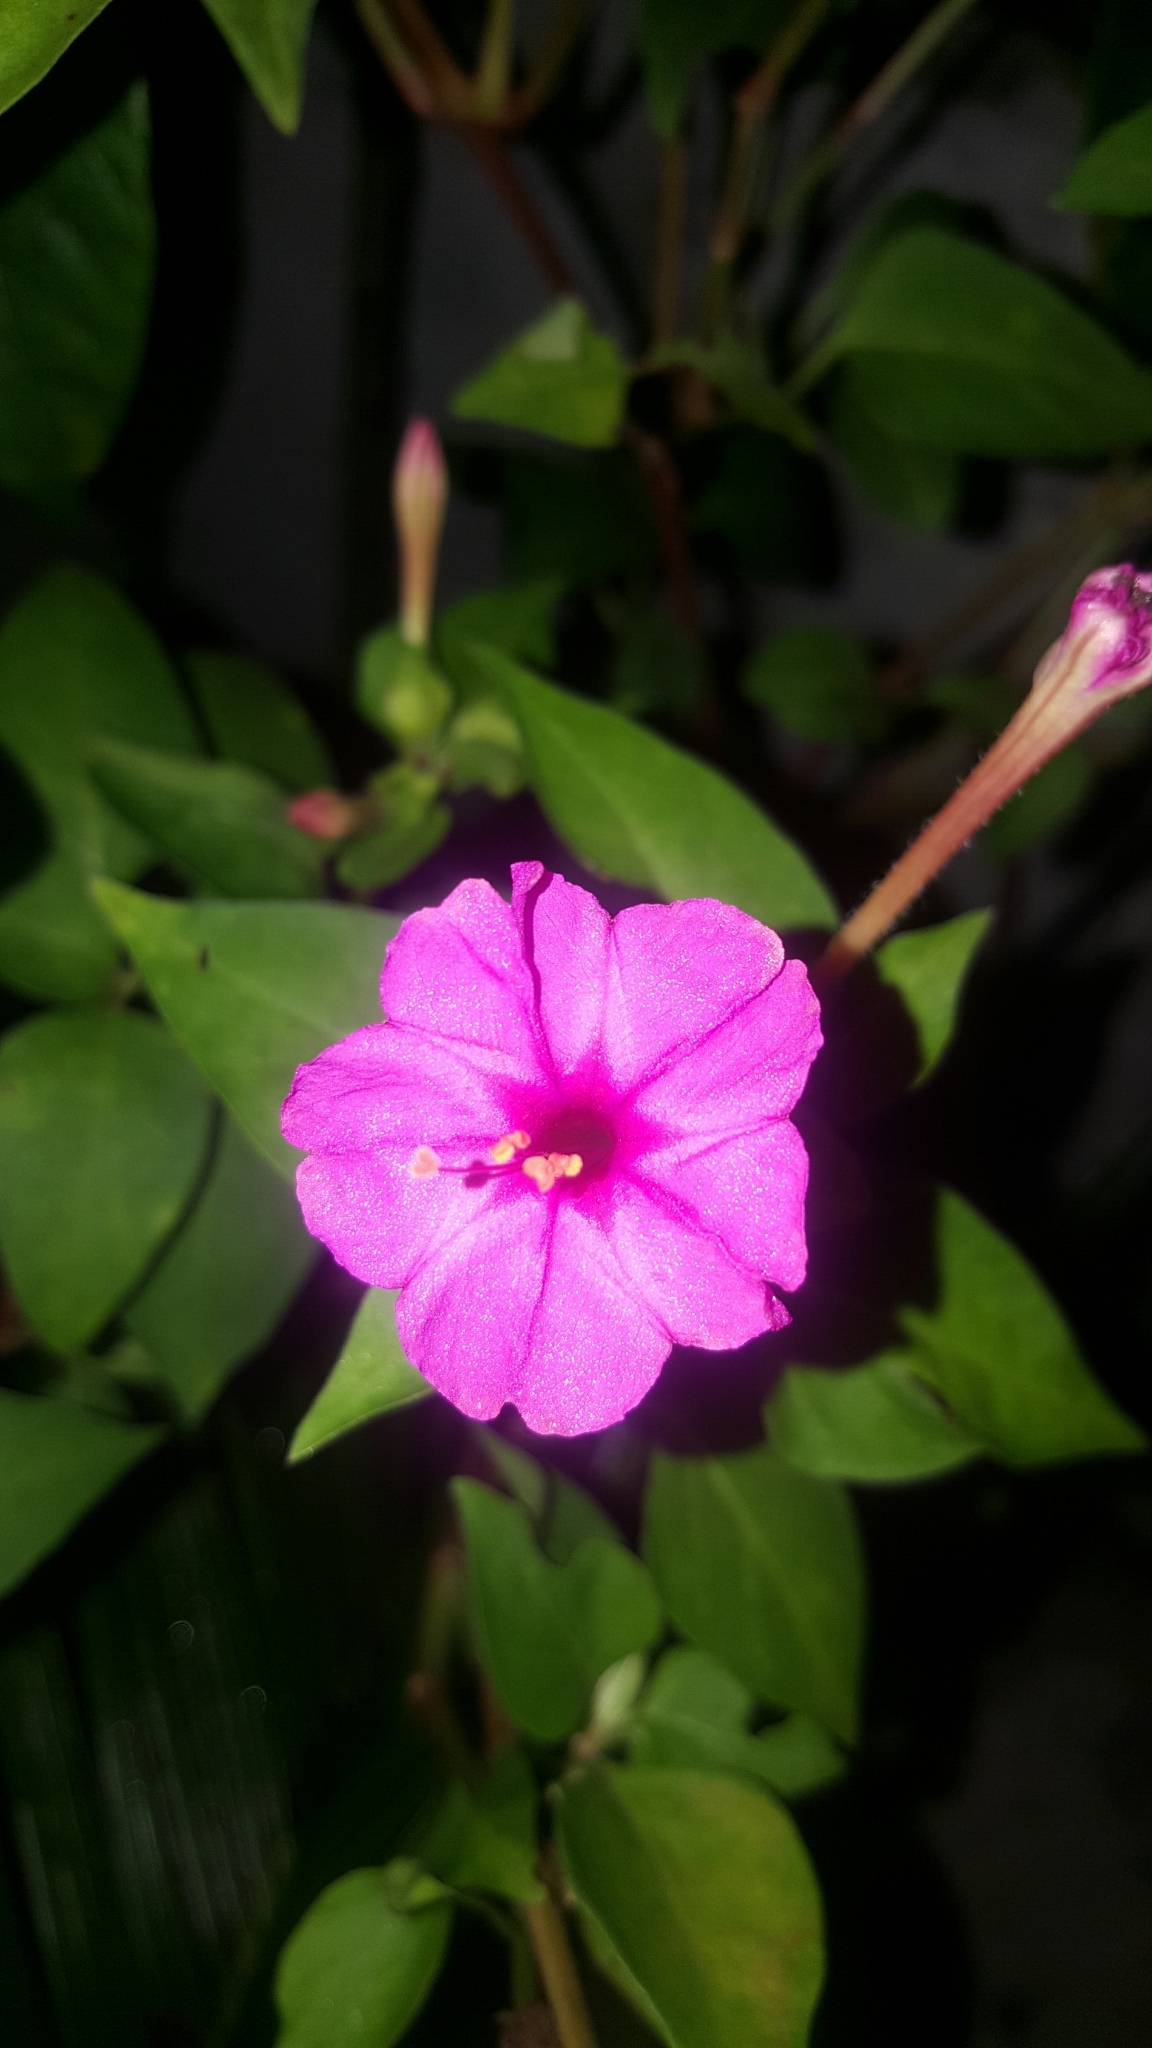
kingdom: Plantae
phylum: Tracheophyta
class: Magnoliopsida
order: Caryophyllales
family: Nyctaginaceae
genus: Mirabilis
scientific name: Mirabilis jalapa
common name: Marvel-of-peru
